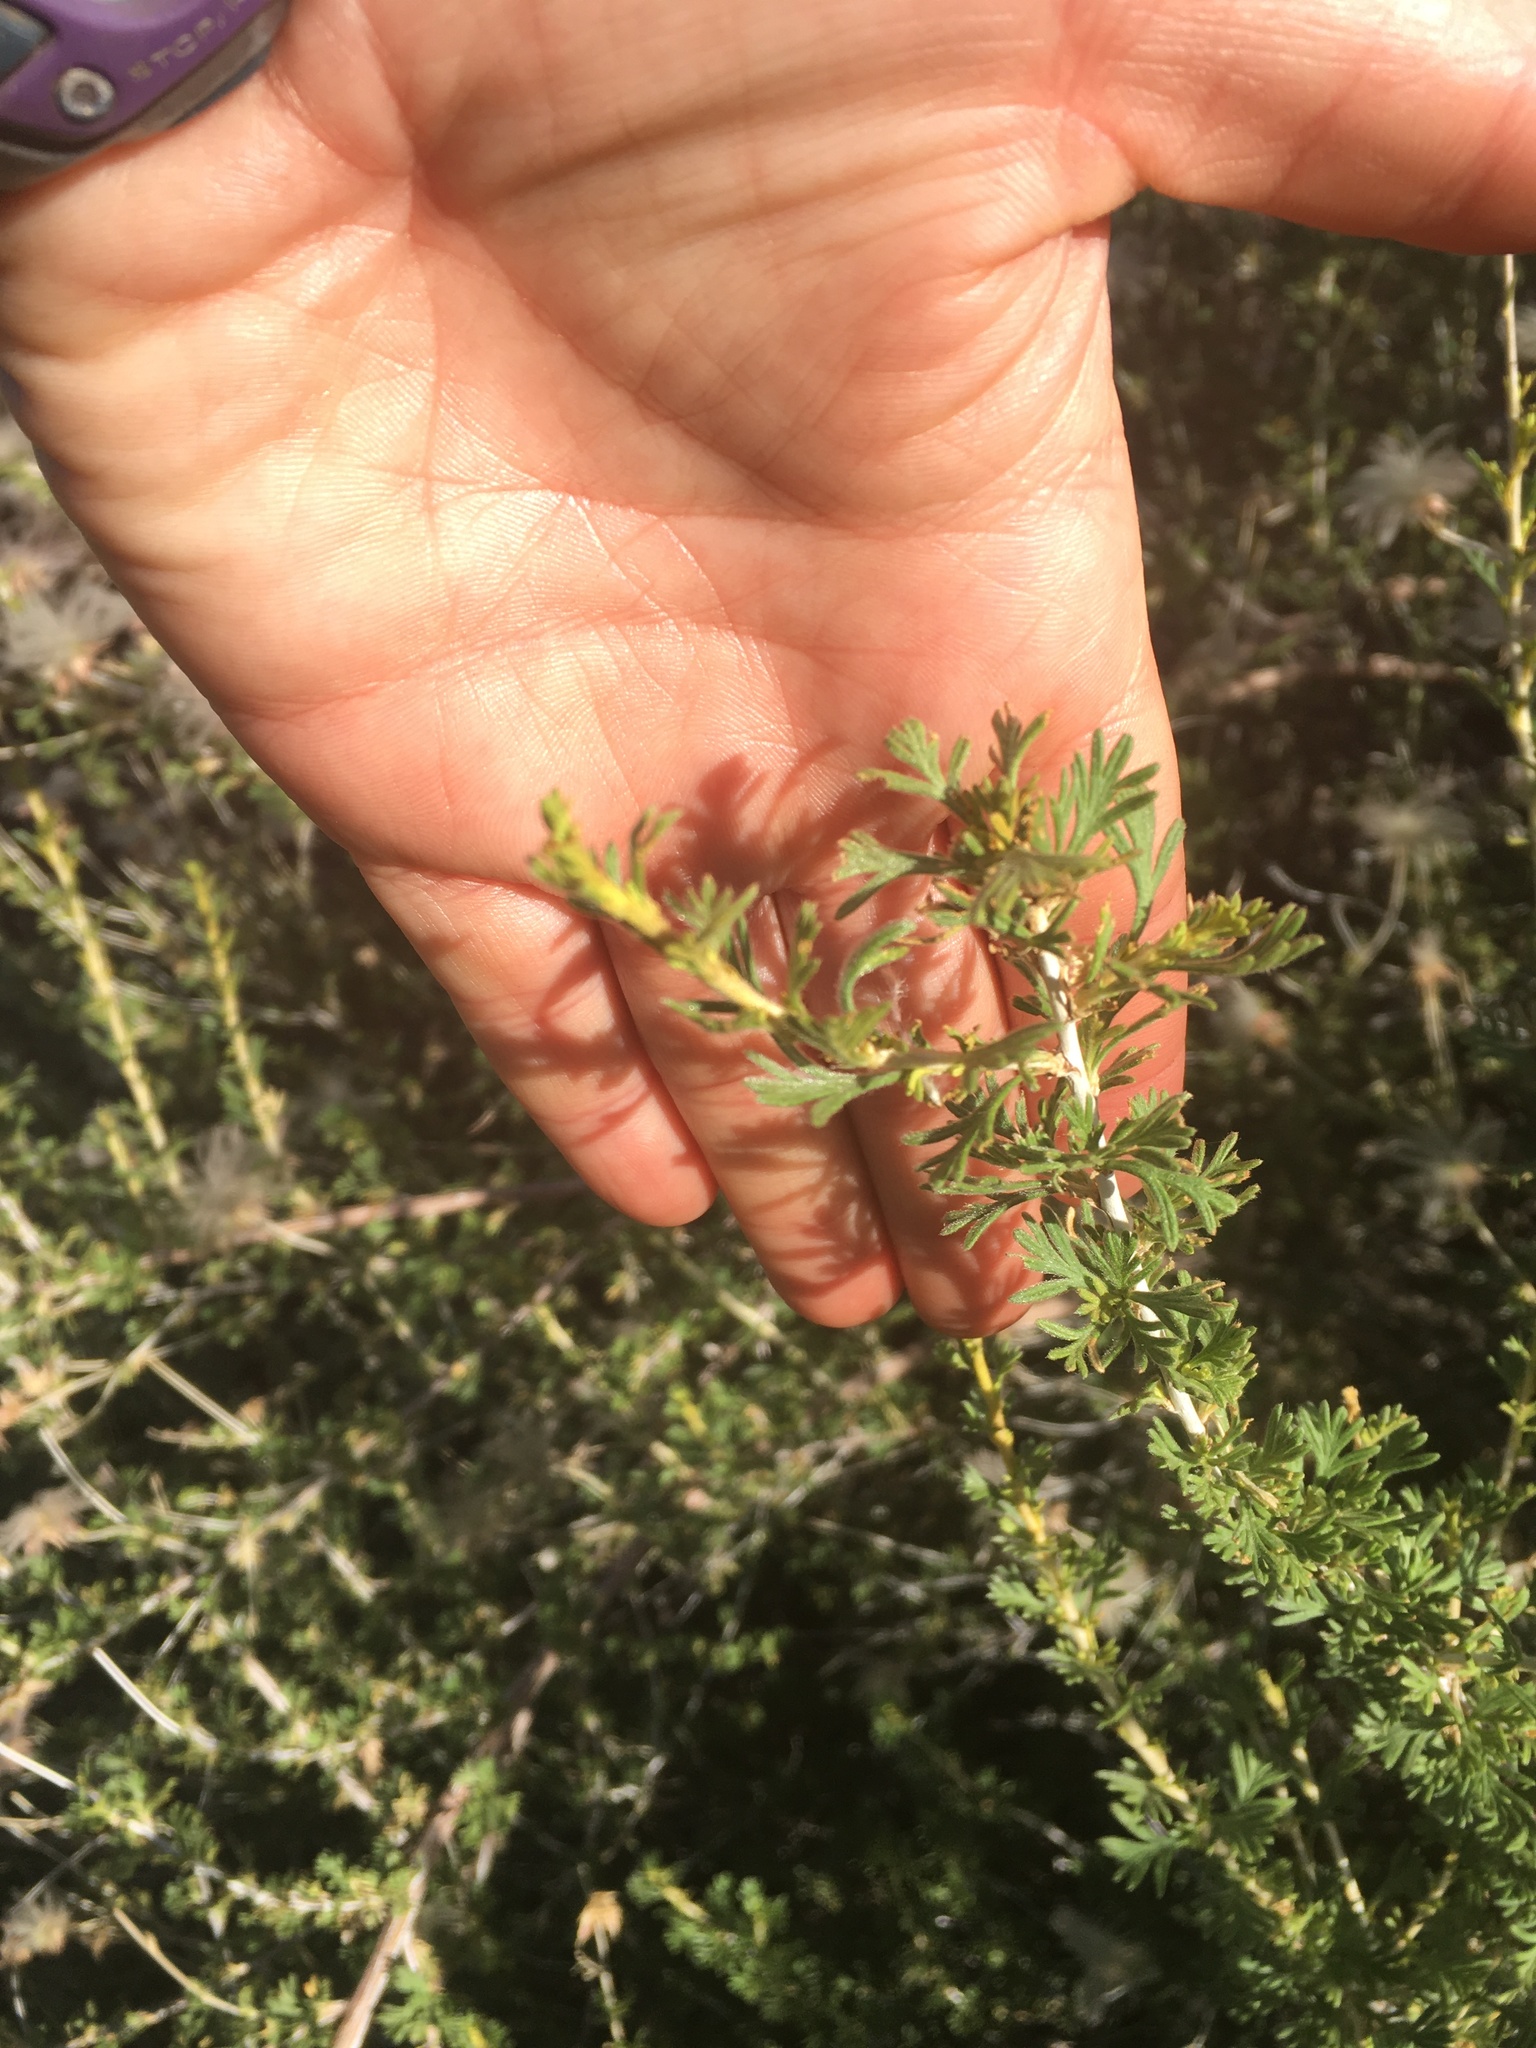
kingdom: Plantae
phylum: Tracheophyta
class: Magnoliopsida
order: Rosales
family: Rosaceae
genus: Fallugia
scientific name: Fallugia paradoxa
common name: Apache-plume
